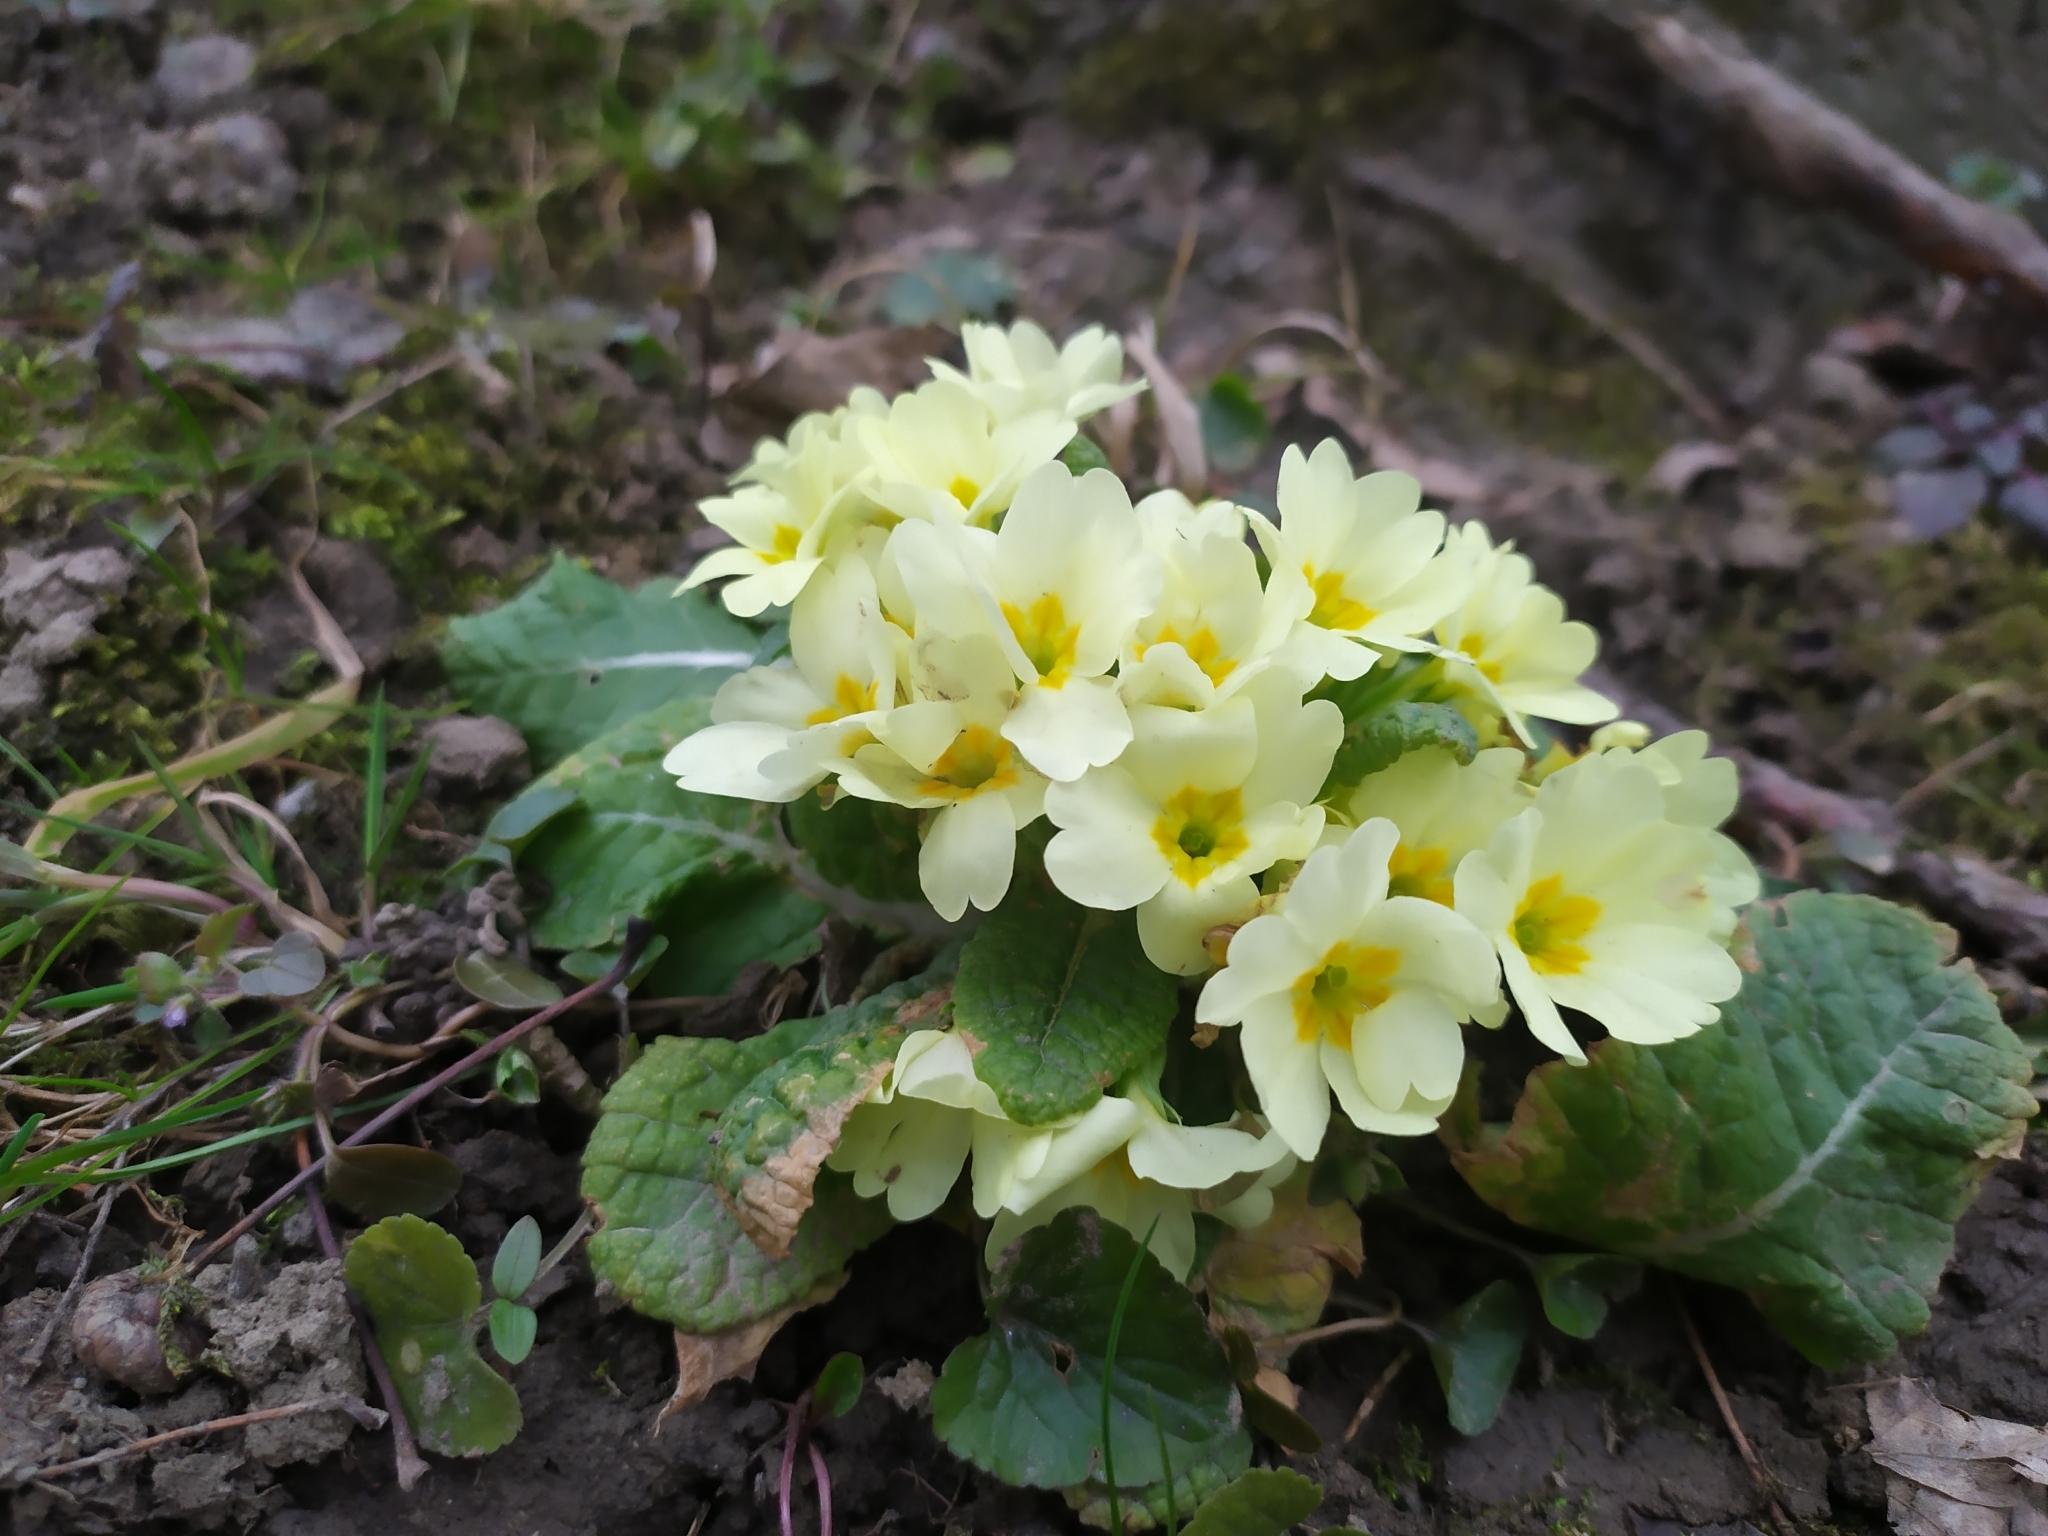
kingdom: Plantae
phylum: Tracheophyta
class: Magnoliopsida
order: Ericales
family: Primulaceae
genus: Primula
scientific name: Primula vulgaris
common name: Primrose
